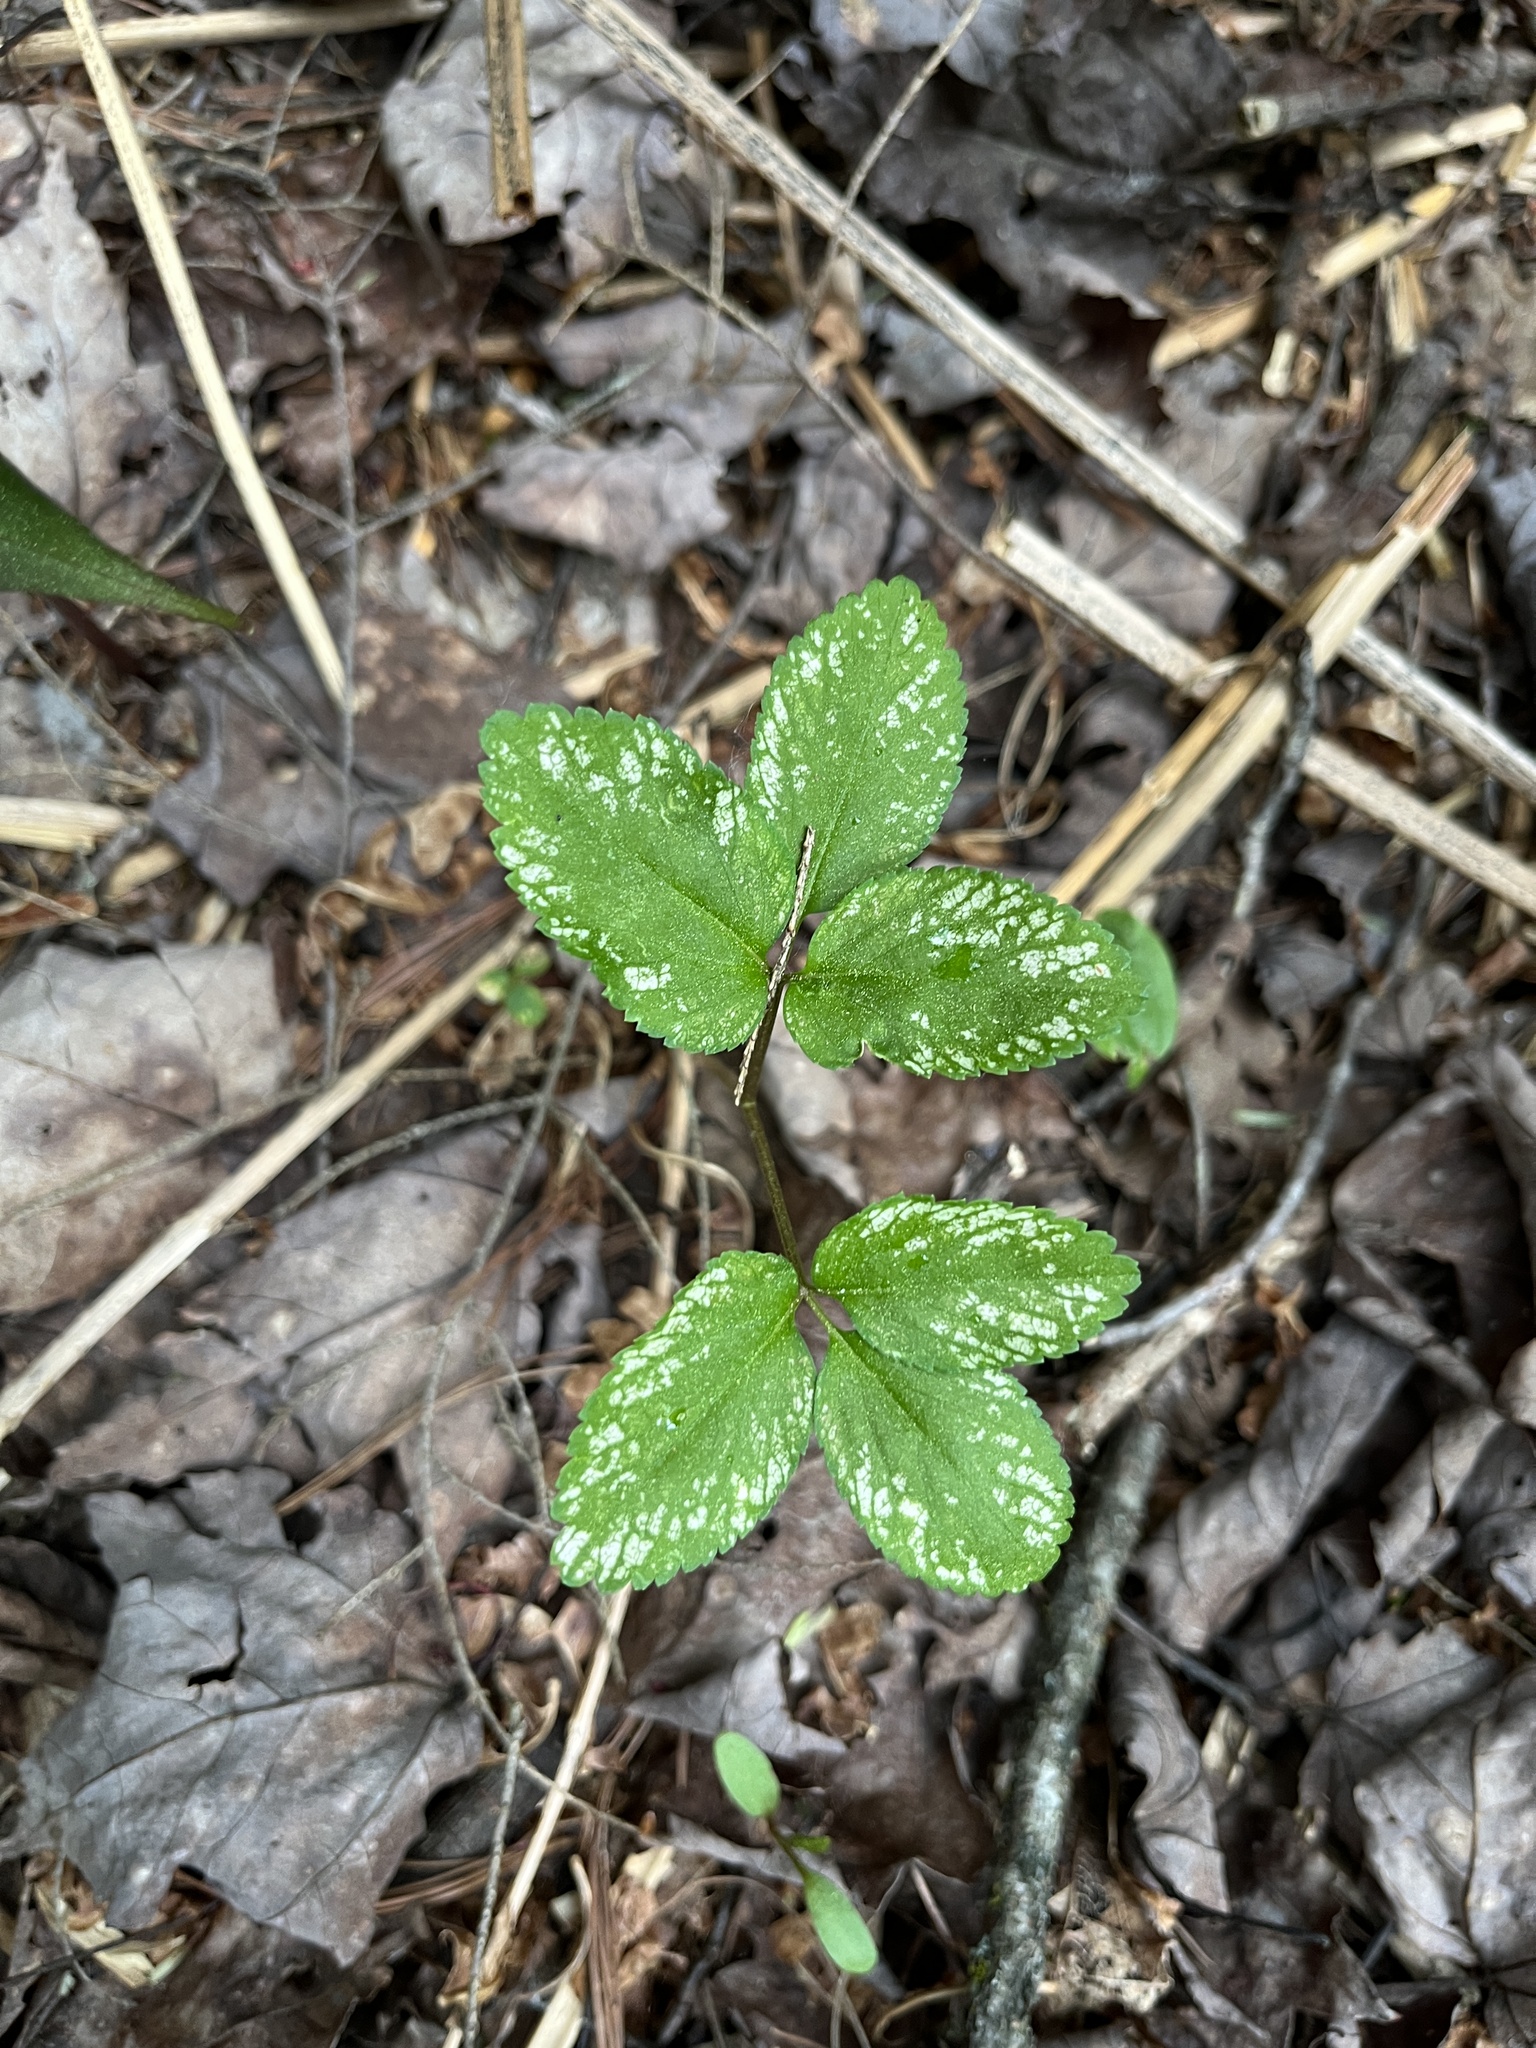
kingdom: Plantae
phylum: Tracheophyta
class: Magnoliopsida
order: Apiales
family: Araliaceae
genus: Panax
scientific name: Panax trifolius
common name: Dwarf ginseng
